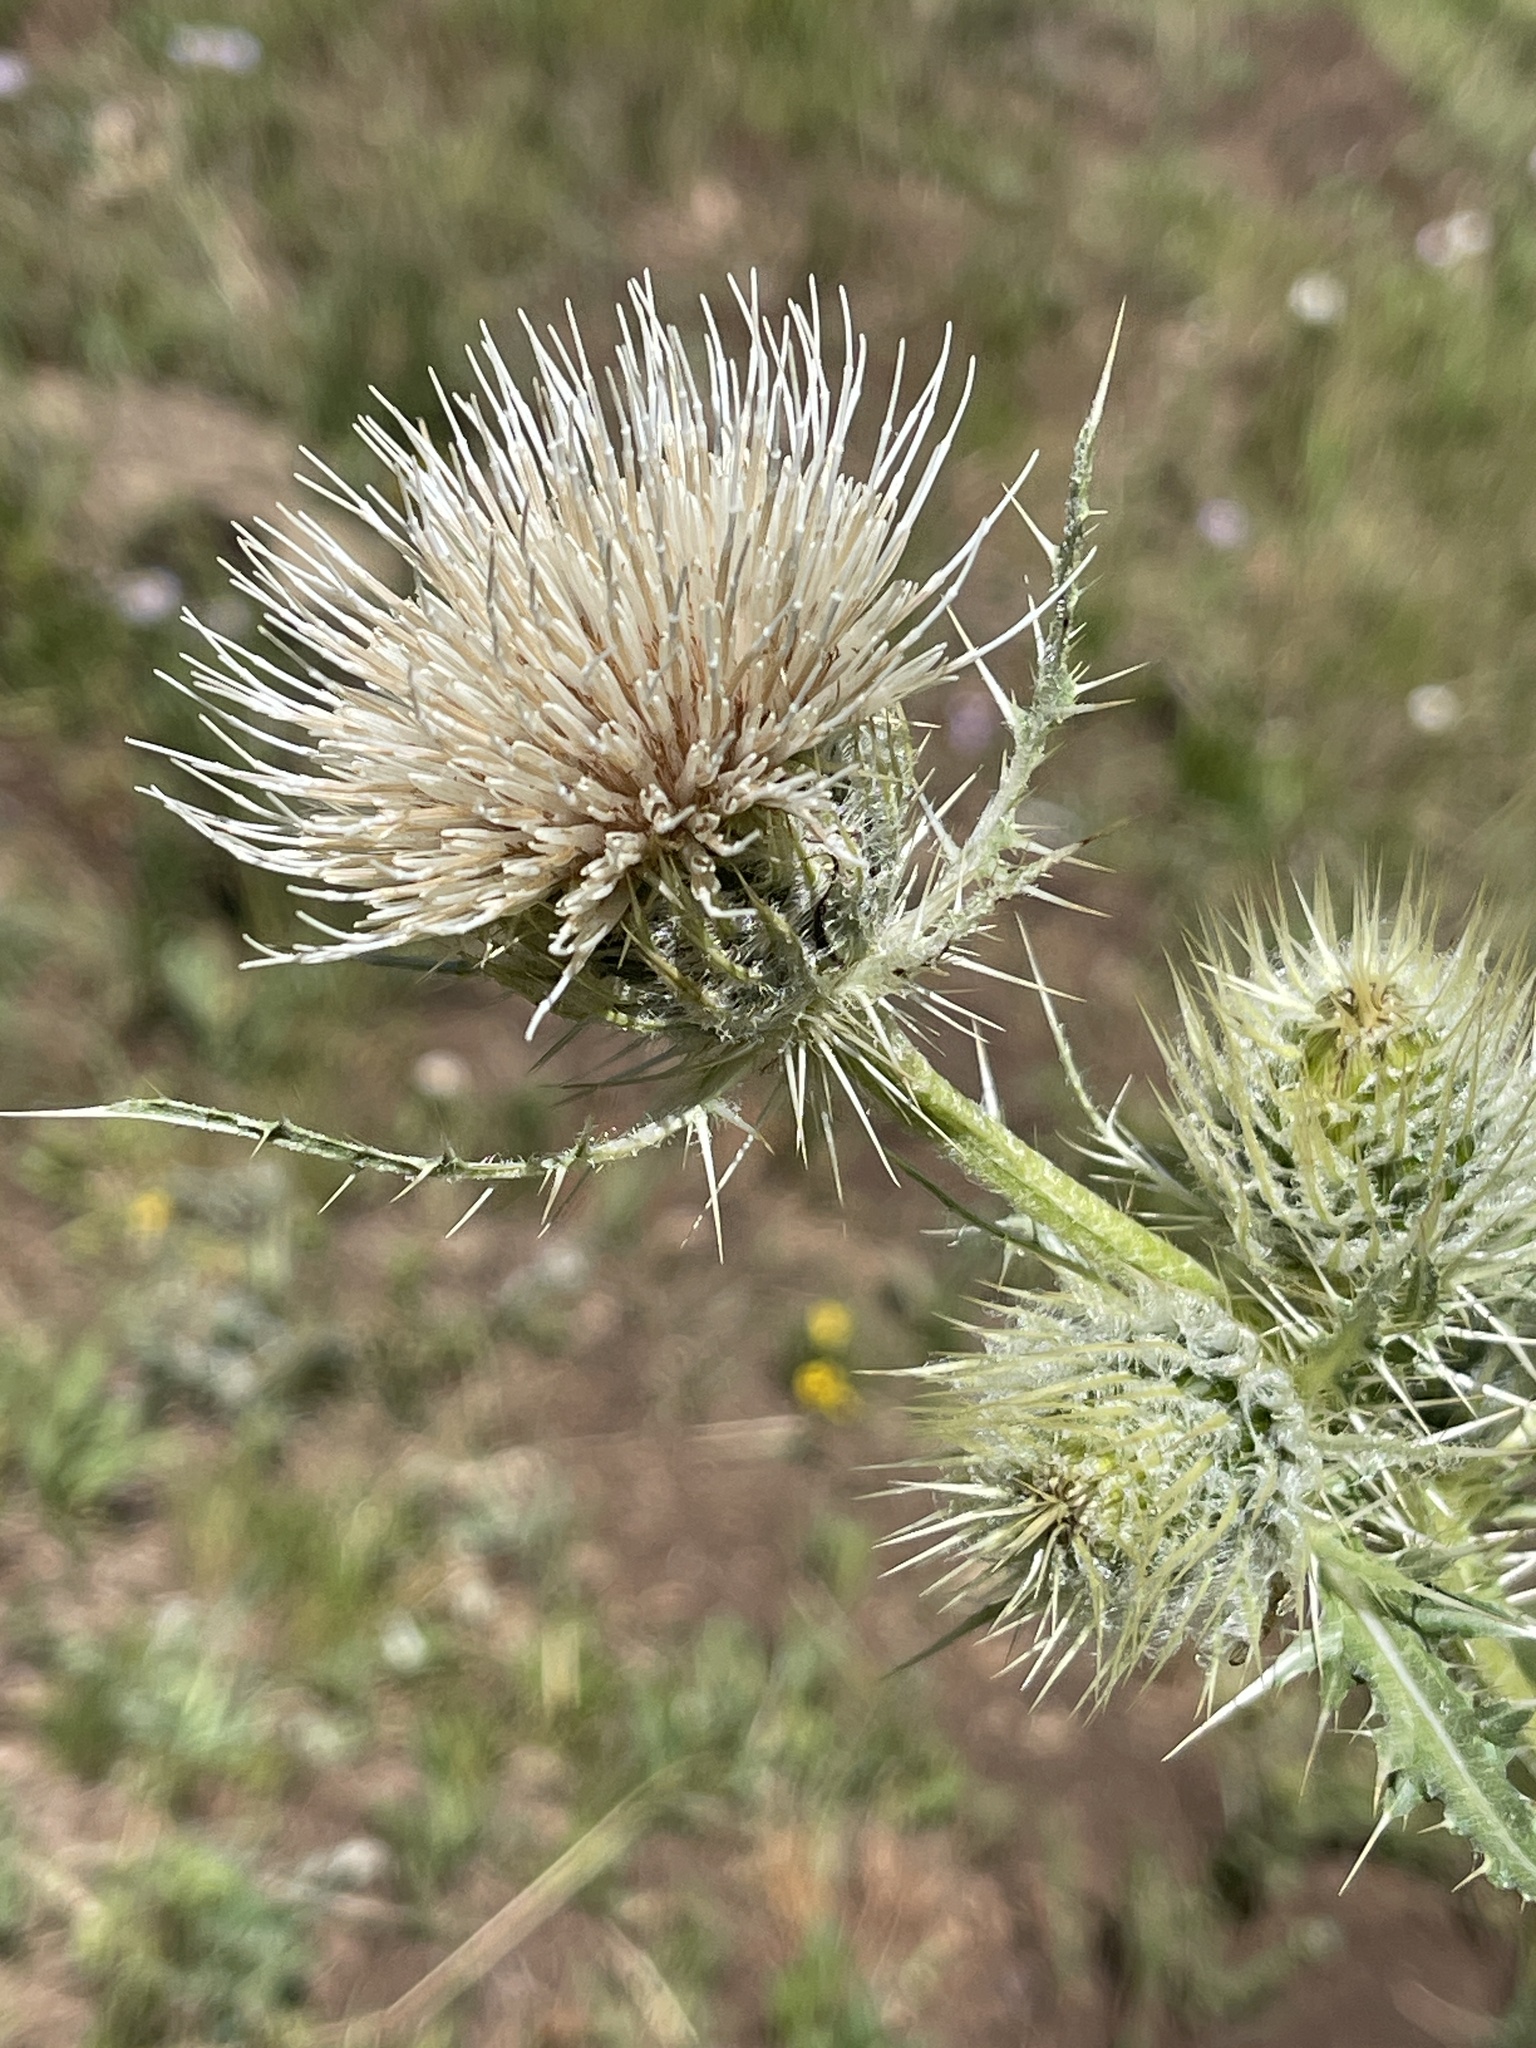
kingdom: Plantae
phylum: Tracheophyta
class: Magnoliopsida
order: Asterales
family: Asteraceae
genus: Cirsium
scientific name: Cirsium
